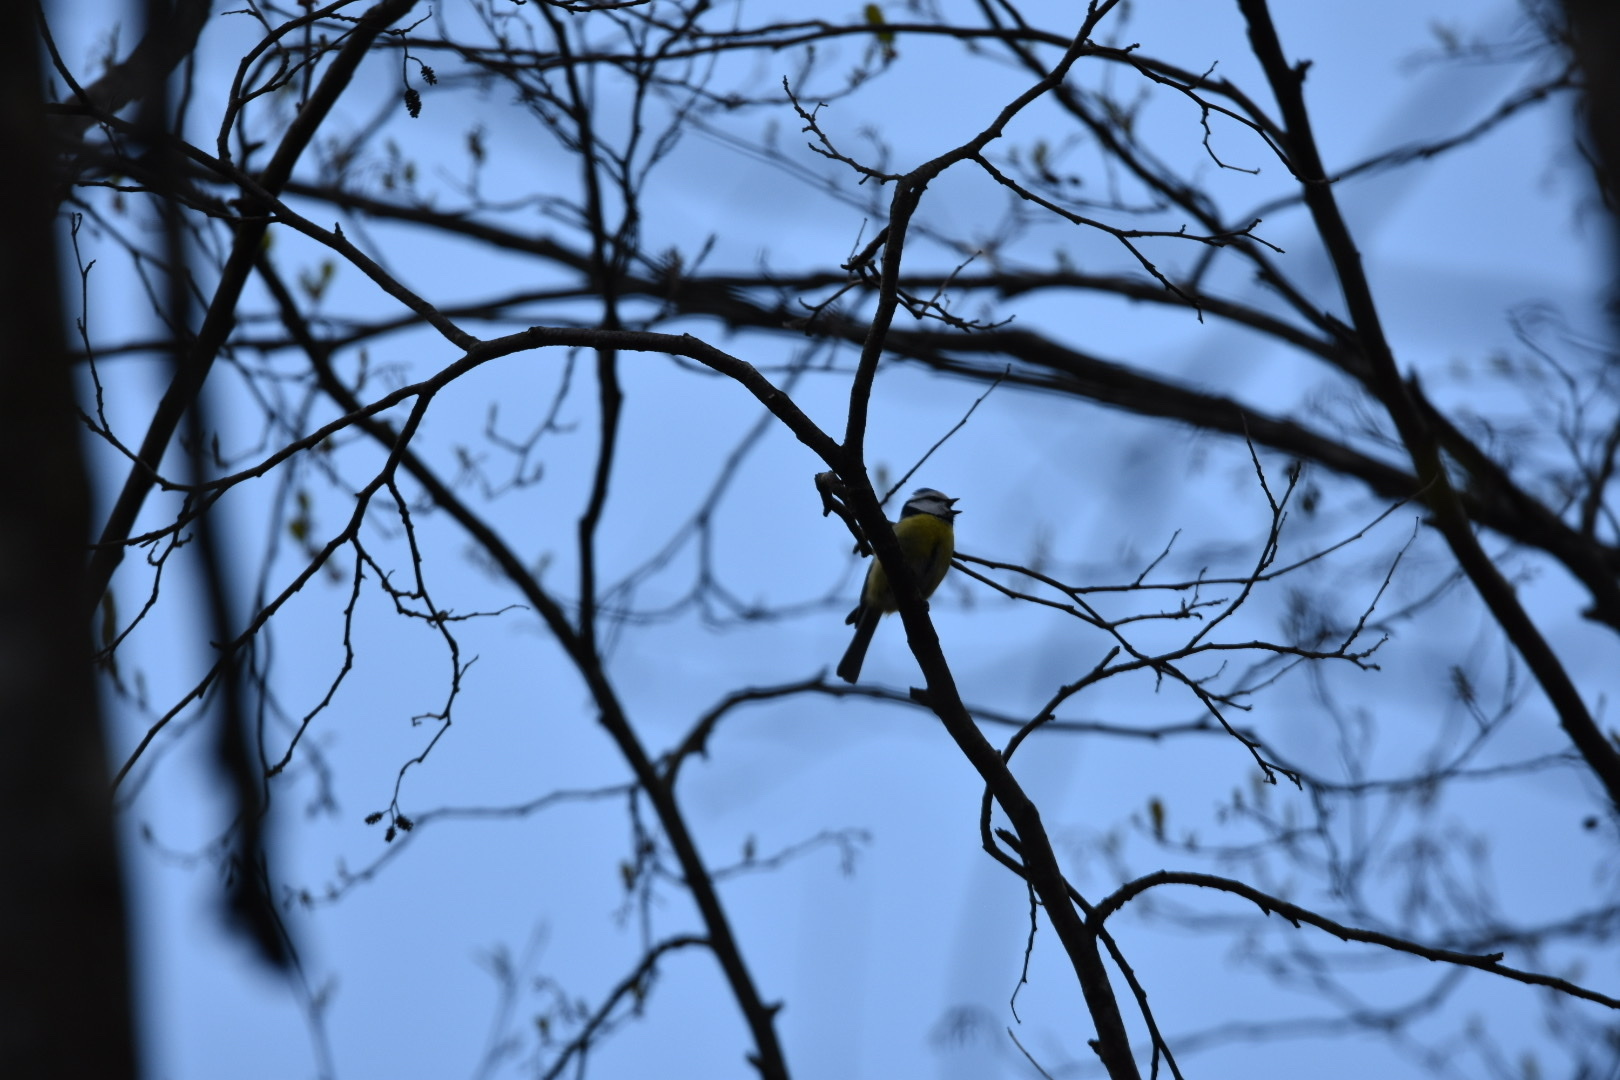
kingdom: Animalia
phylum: Chordata
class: Aves
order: Passeriformes
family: Paridae
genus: Cyanistes
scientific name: Cyanistes caeruleus
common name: Eurasian blue tit
